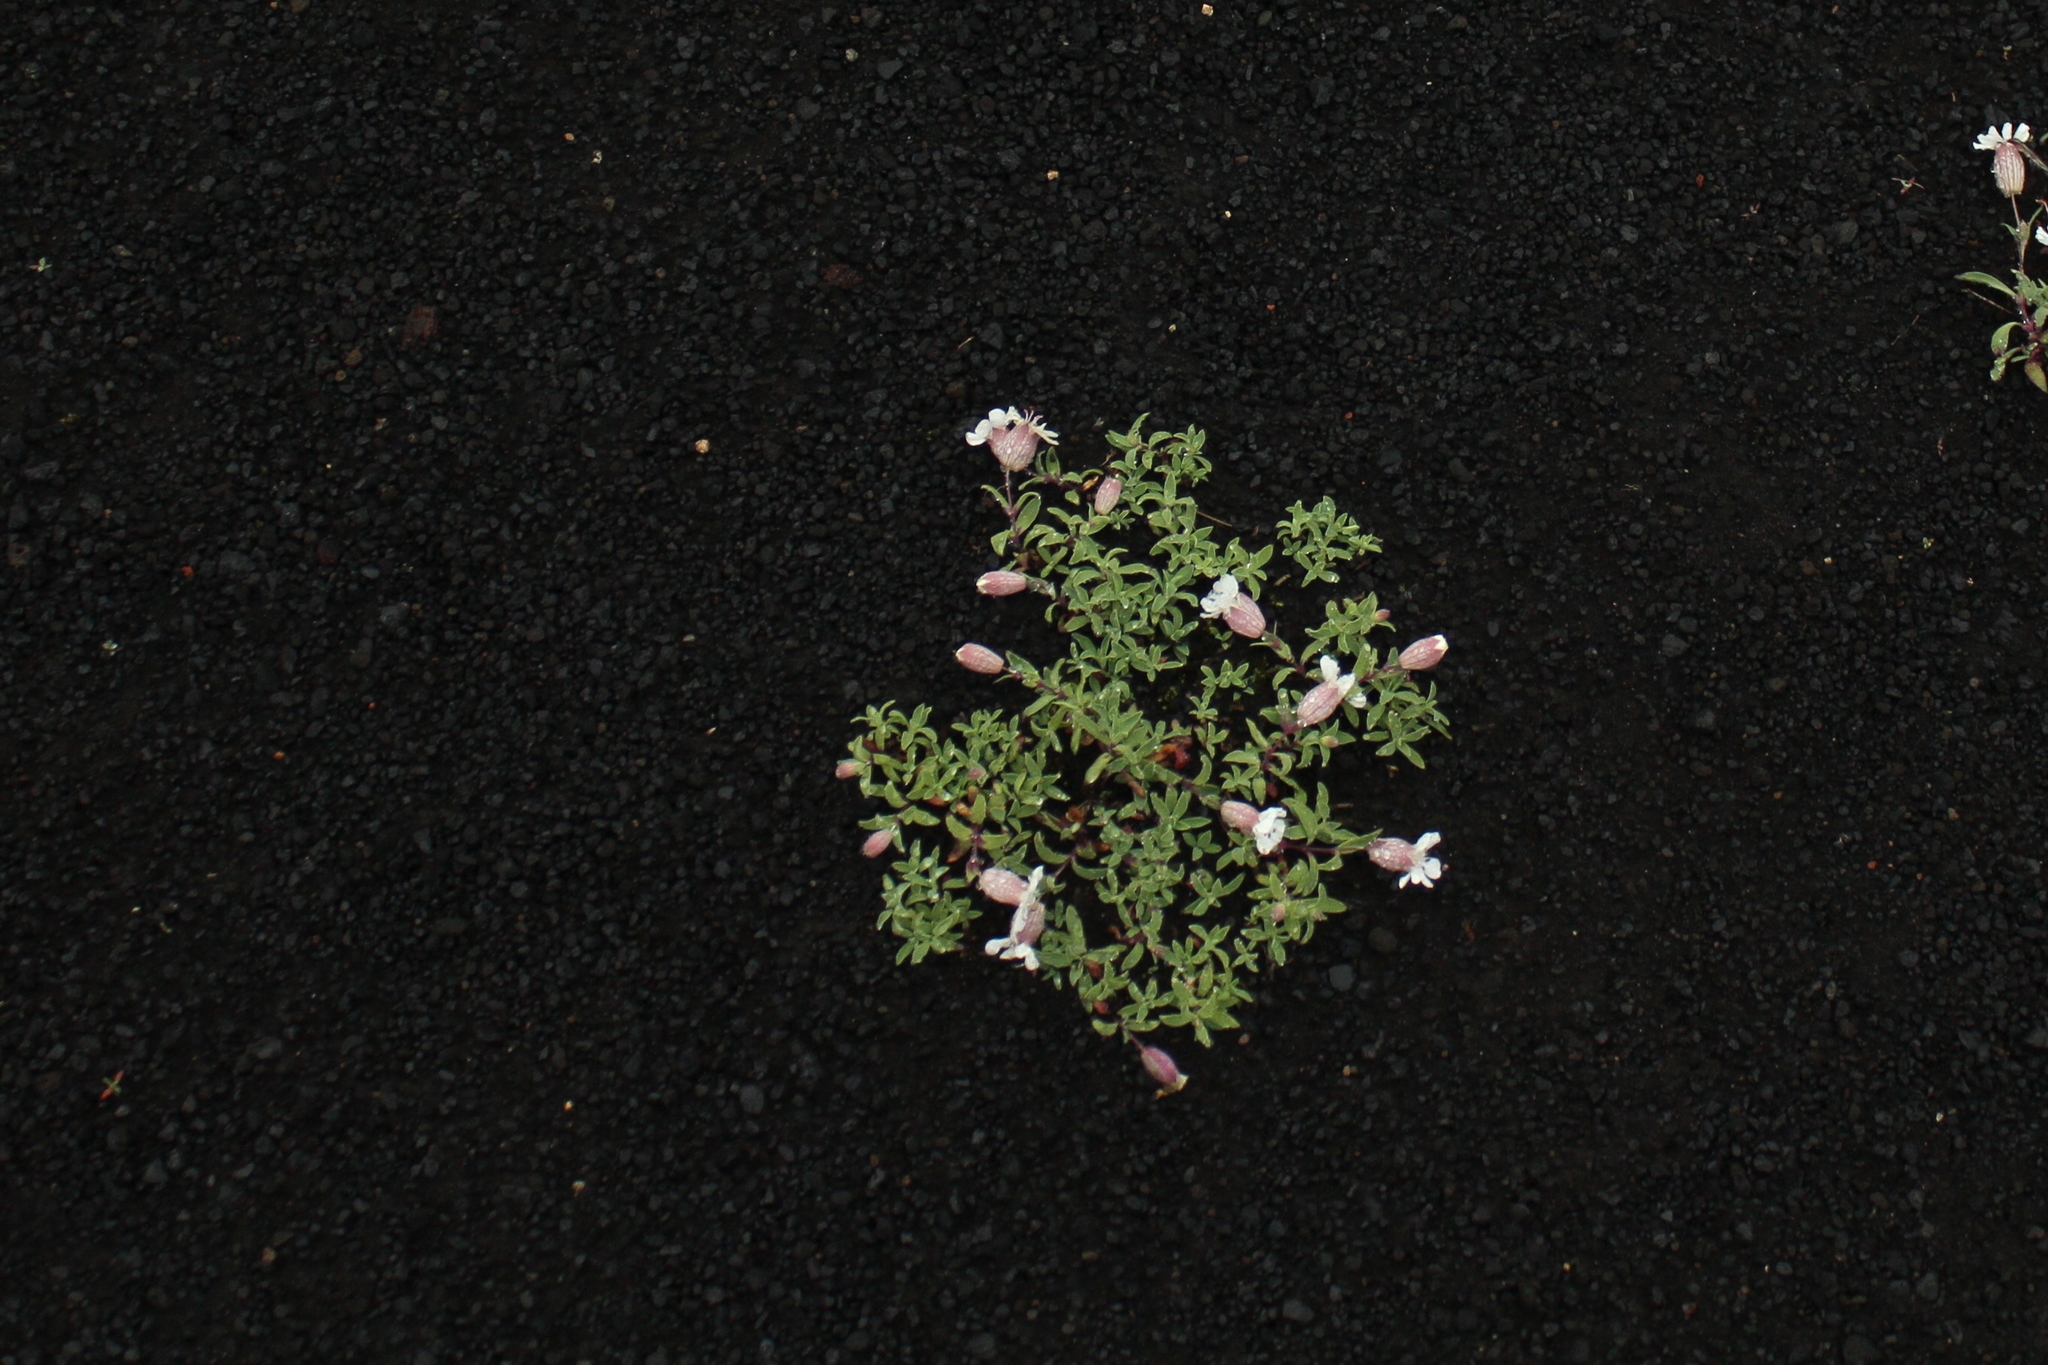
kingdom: Plantae
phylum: Tracheophyta
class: Magnoliopsida
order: Caryophyllales
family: Caryophyllaceae
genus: Silene
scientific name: Silene uniflora
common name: Sea campion
